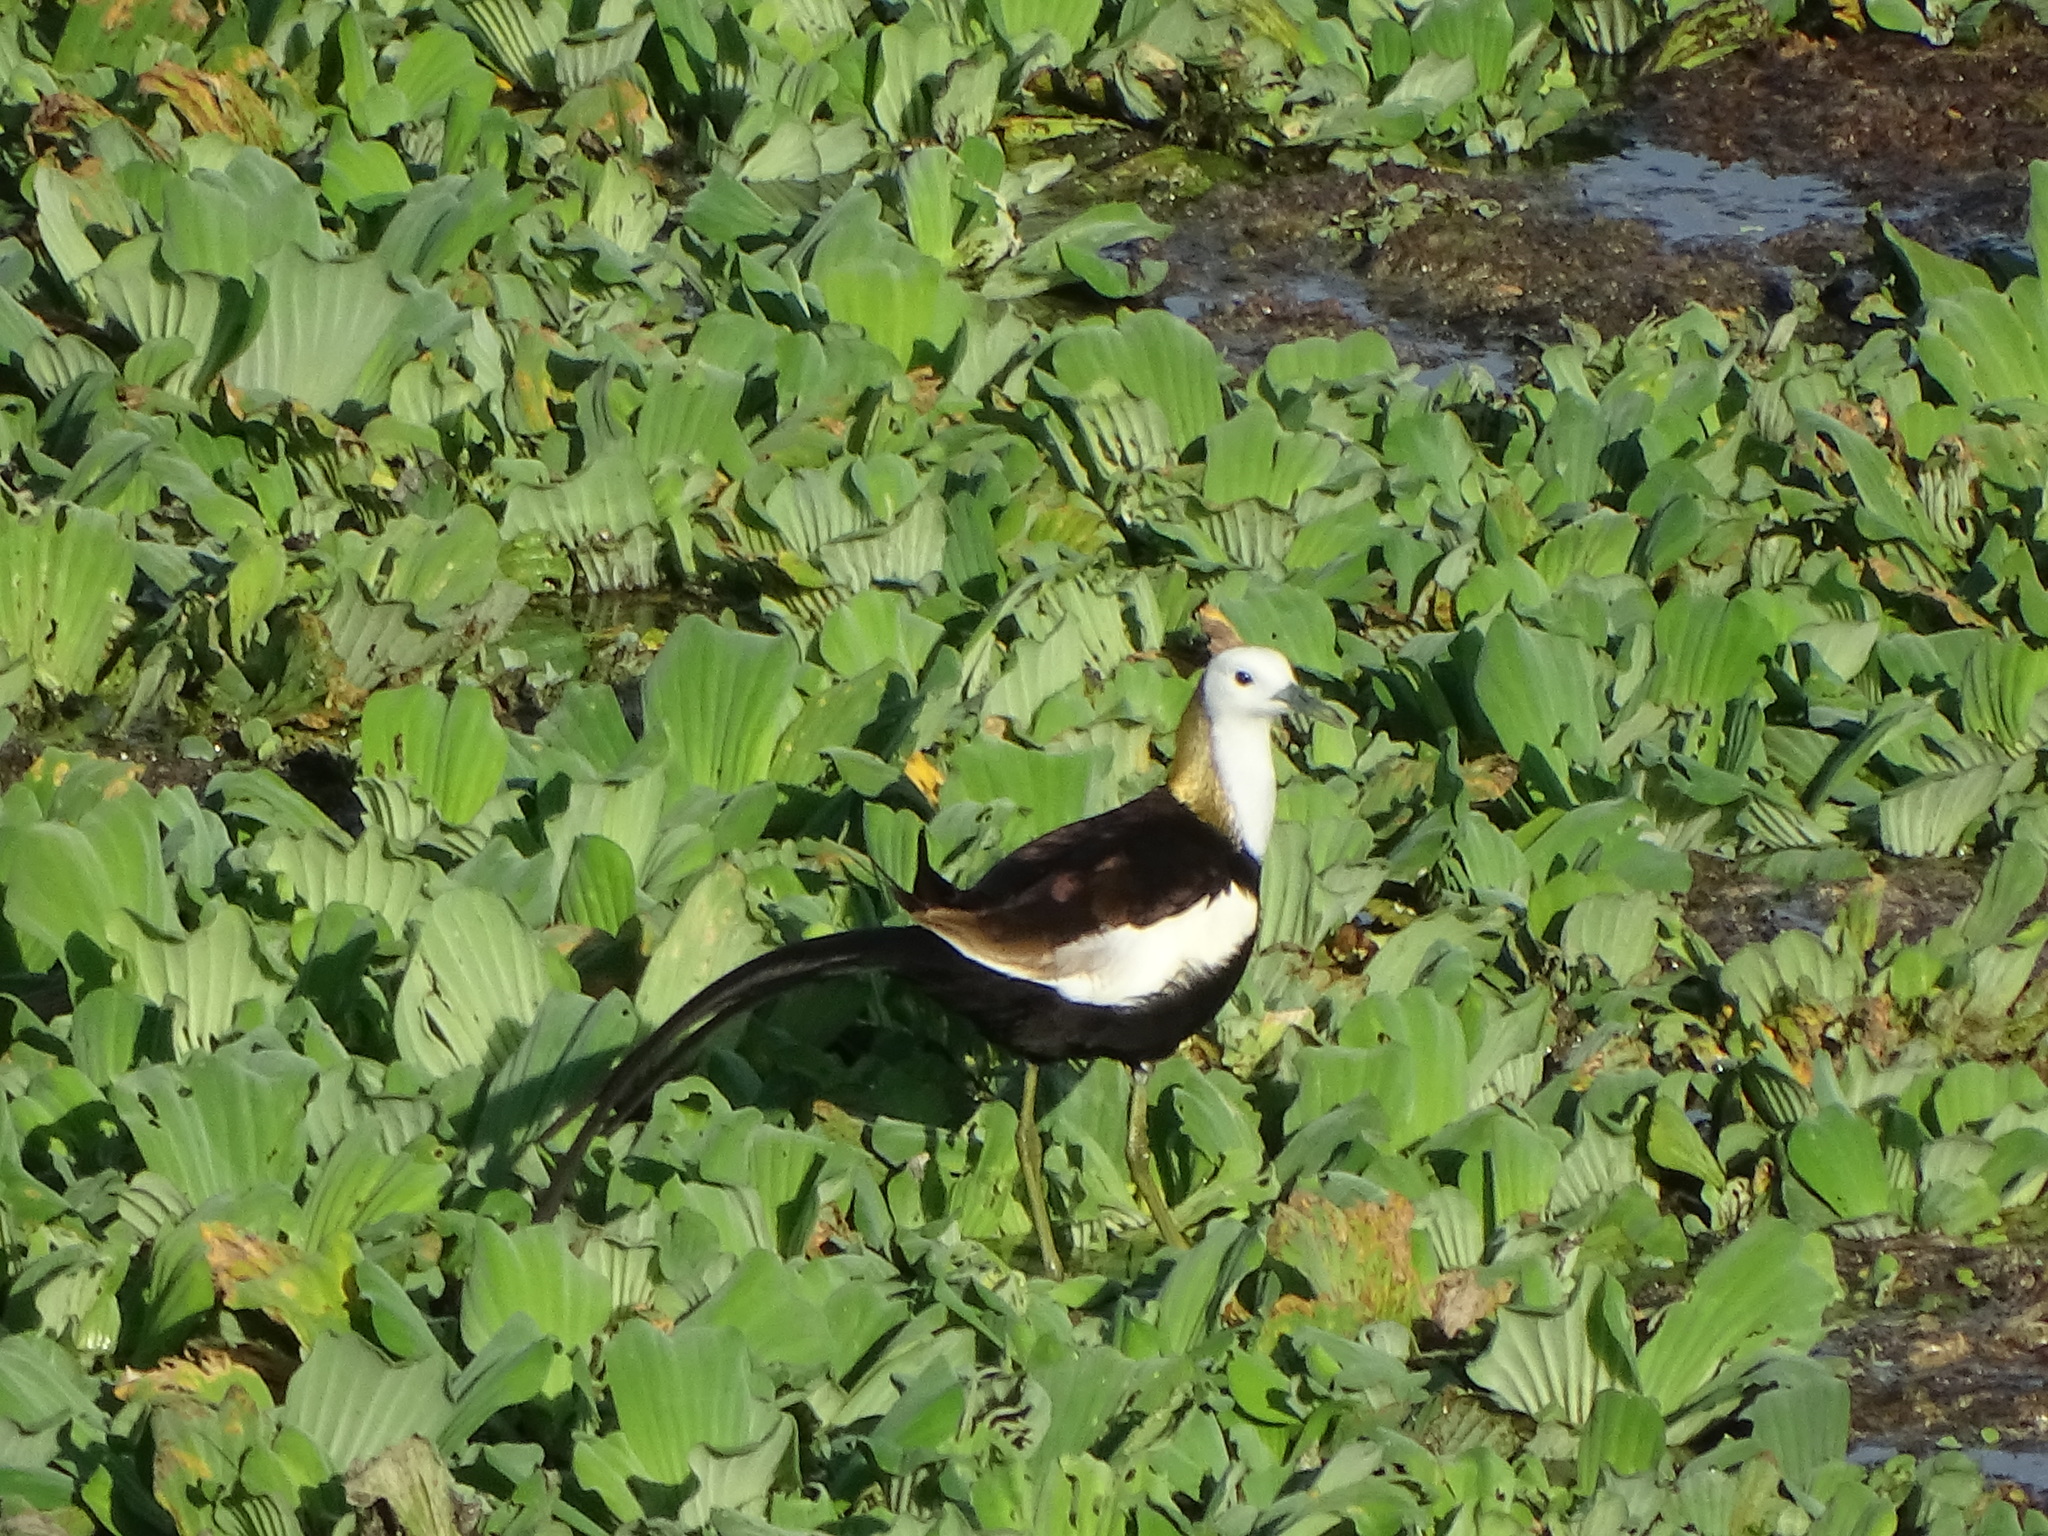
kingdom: Animalia
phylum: Chordata
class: Aves
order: Charadriiformes
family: Jacanidae
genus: Hydrophasianus
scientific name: Hydrophasianus chirurgus
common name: Pheasant-tailed jacana
